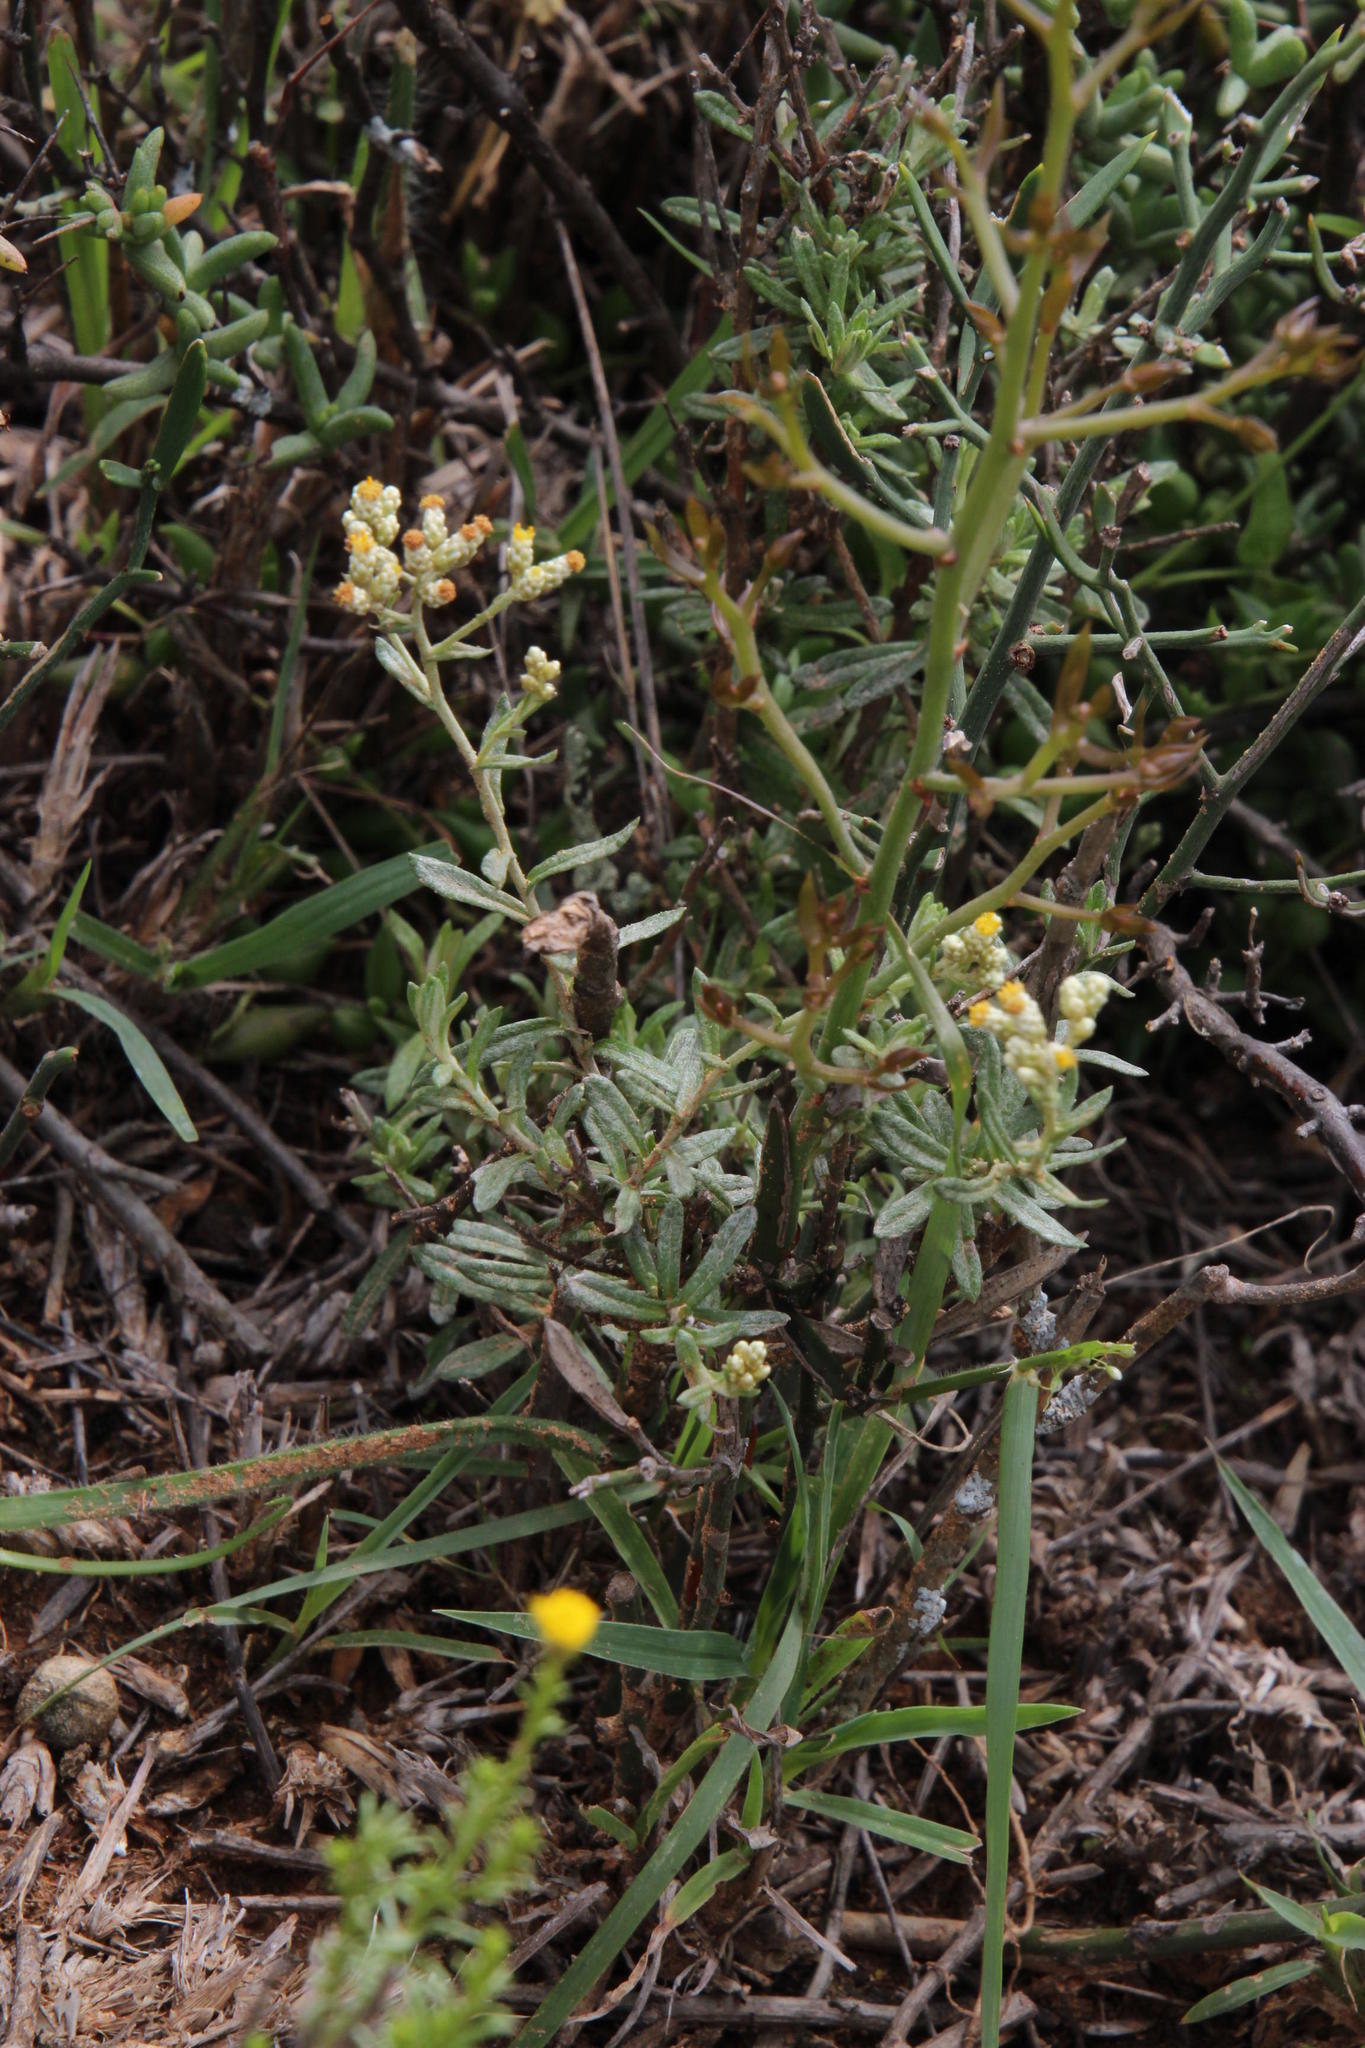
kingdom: Plantae
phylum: Tracheophyta
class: Magnoliopsida
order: Asterales
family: Asteraceae
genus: Helichrysum
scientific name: Helichrysum rosum
